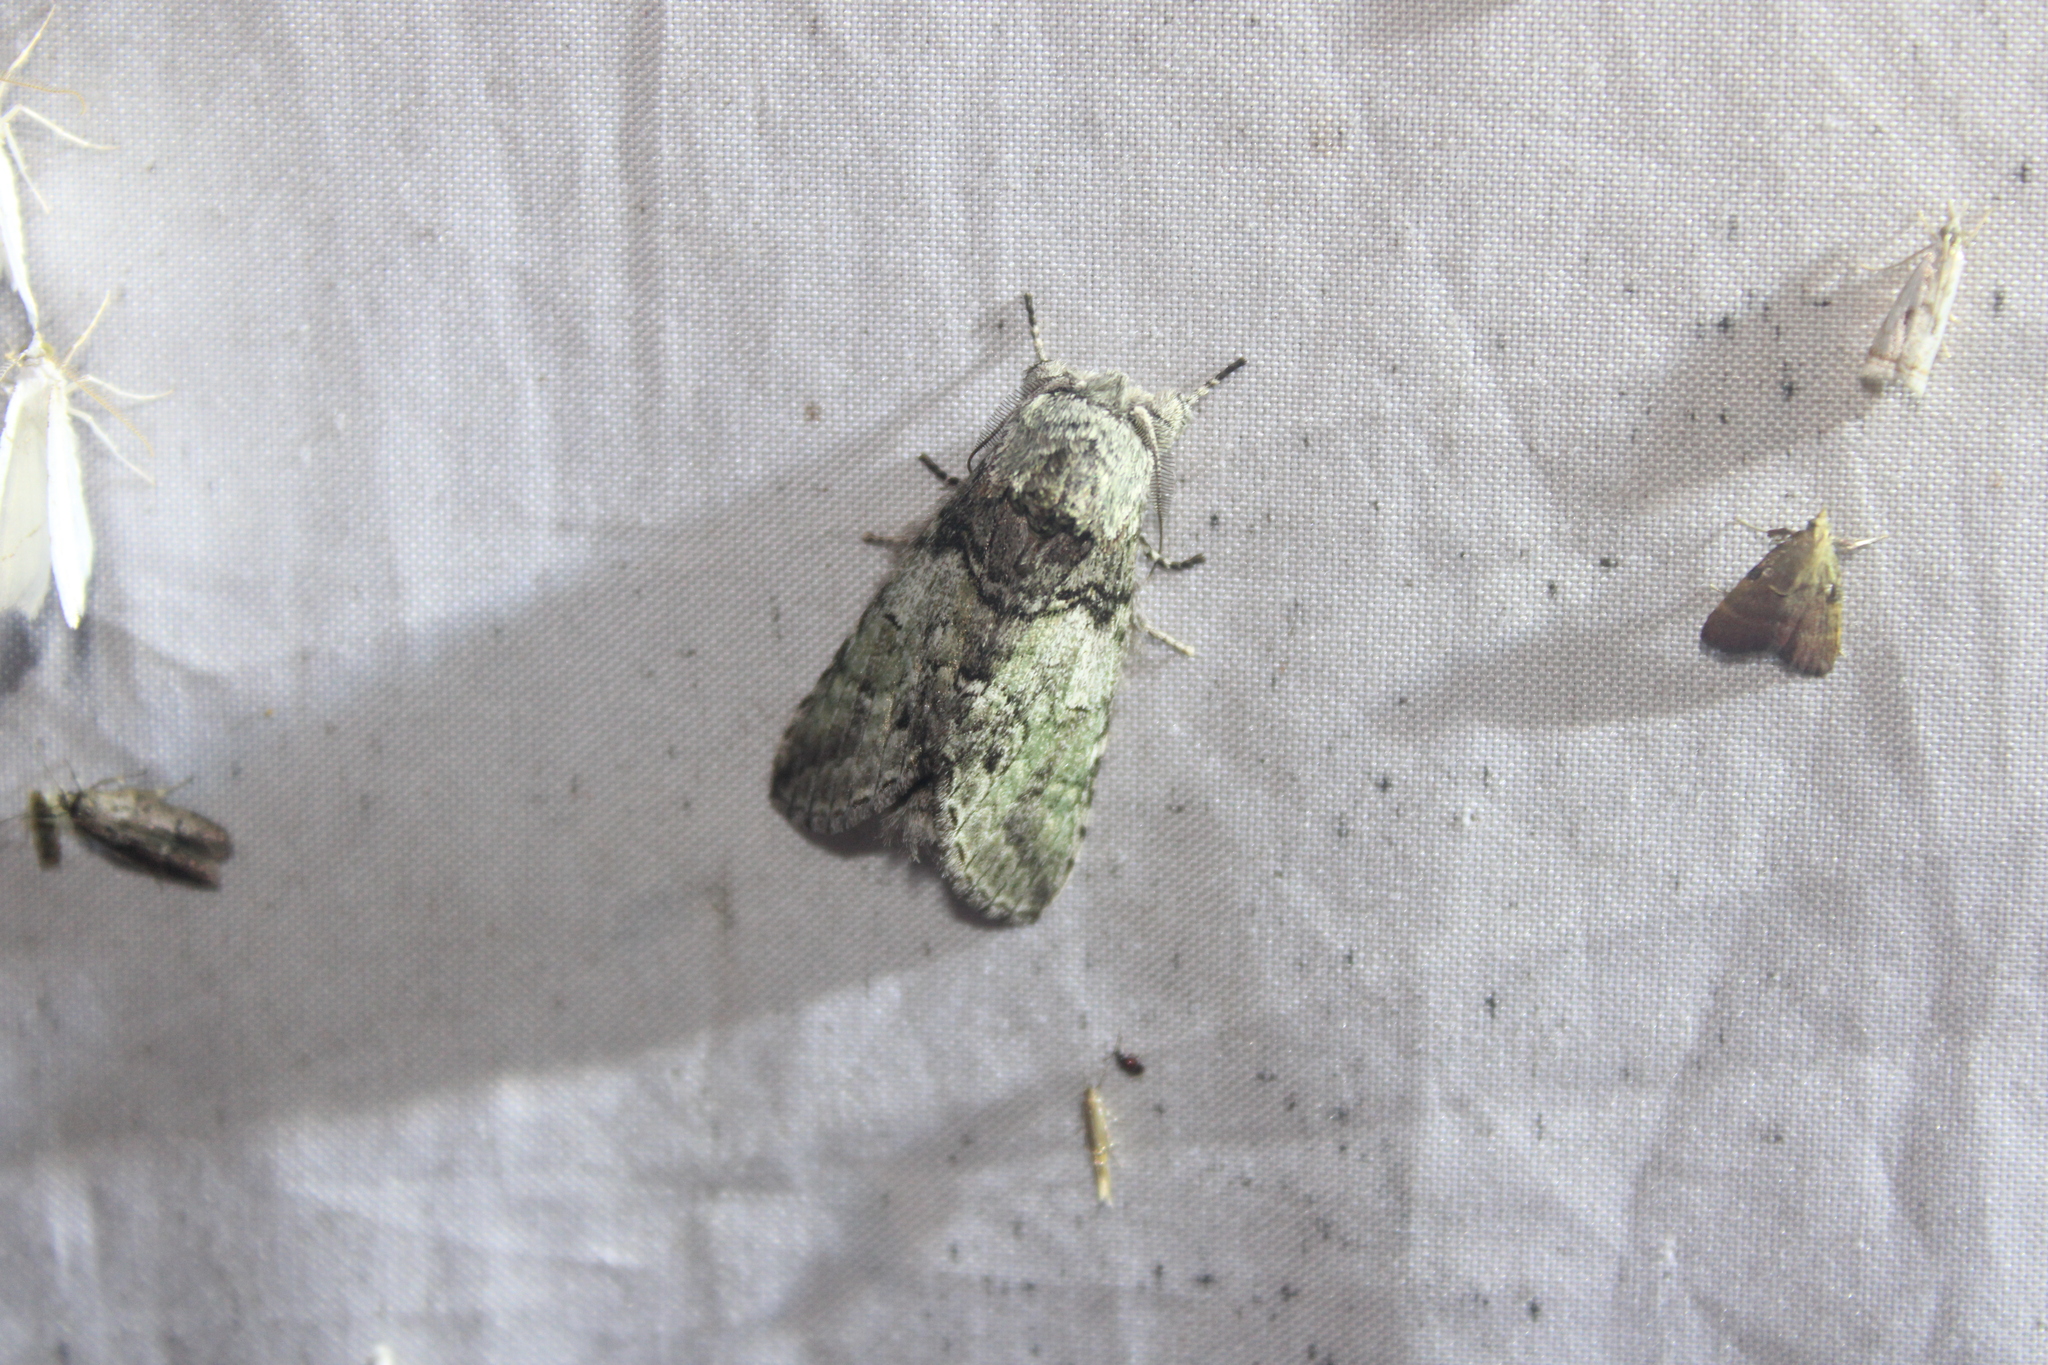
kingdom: Animalia
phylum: Arthropoda
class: Insecta
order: Lepidoptera
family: Notodontidae
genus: Macrurocampa
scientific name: Macrurocampa marthesia
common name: Mottled prominent
